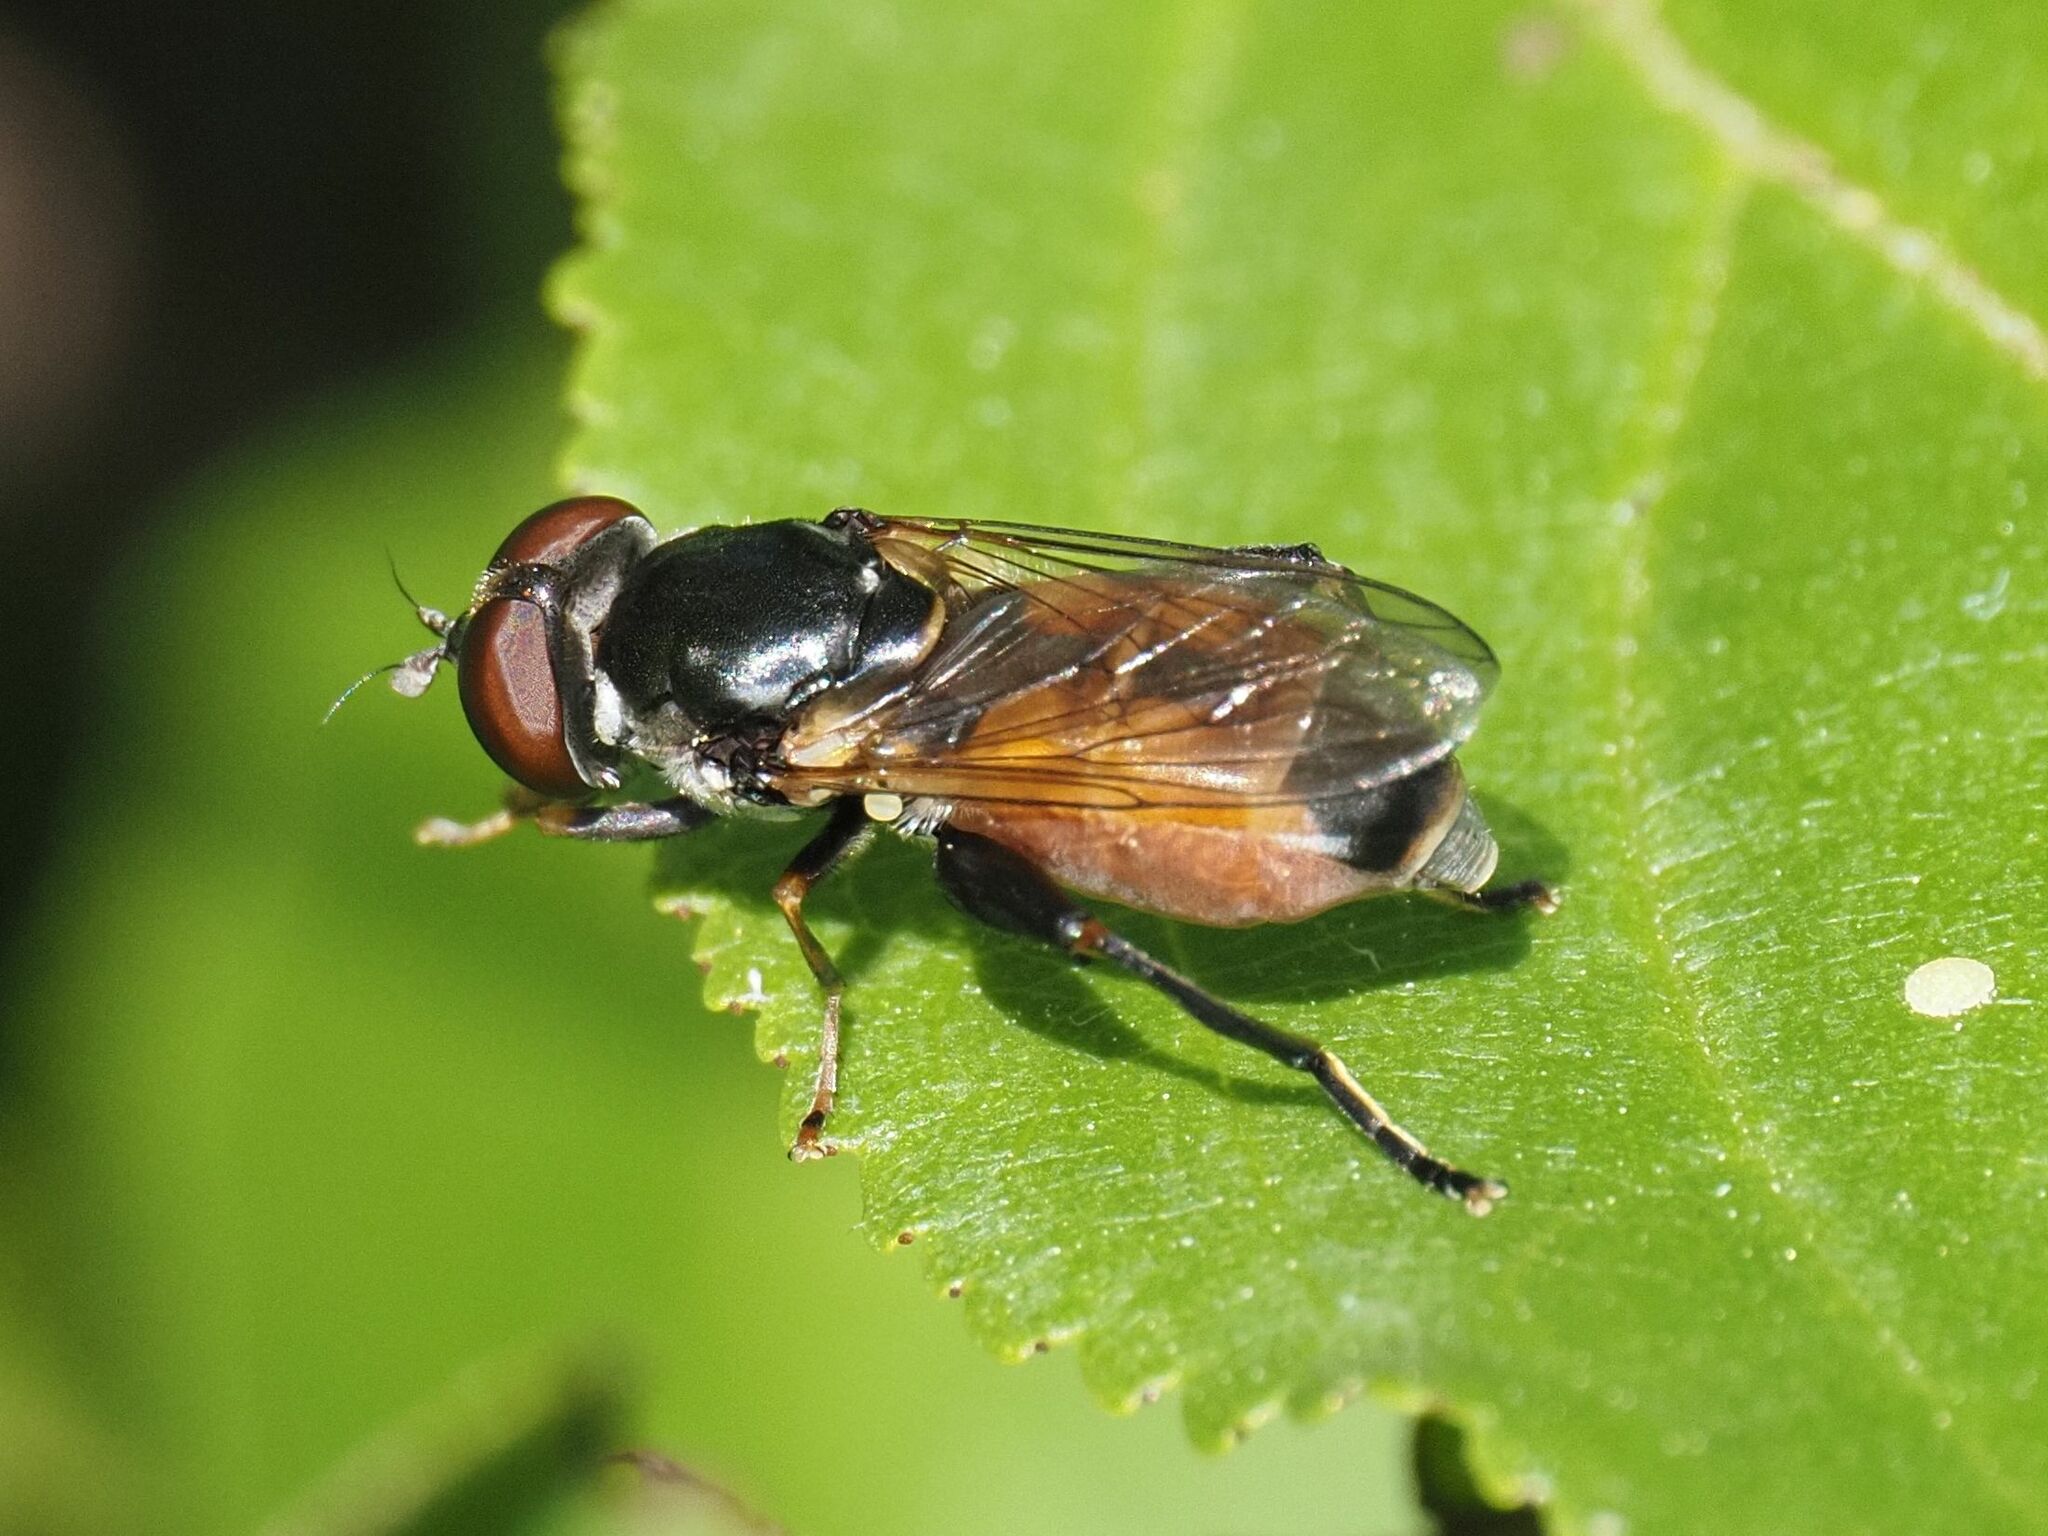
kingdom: Animalia
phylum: Arthropoda
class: Insecta
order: Diptera
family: Syrphidae
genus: Tropidia
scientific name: Tropidia scita
